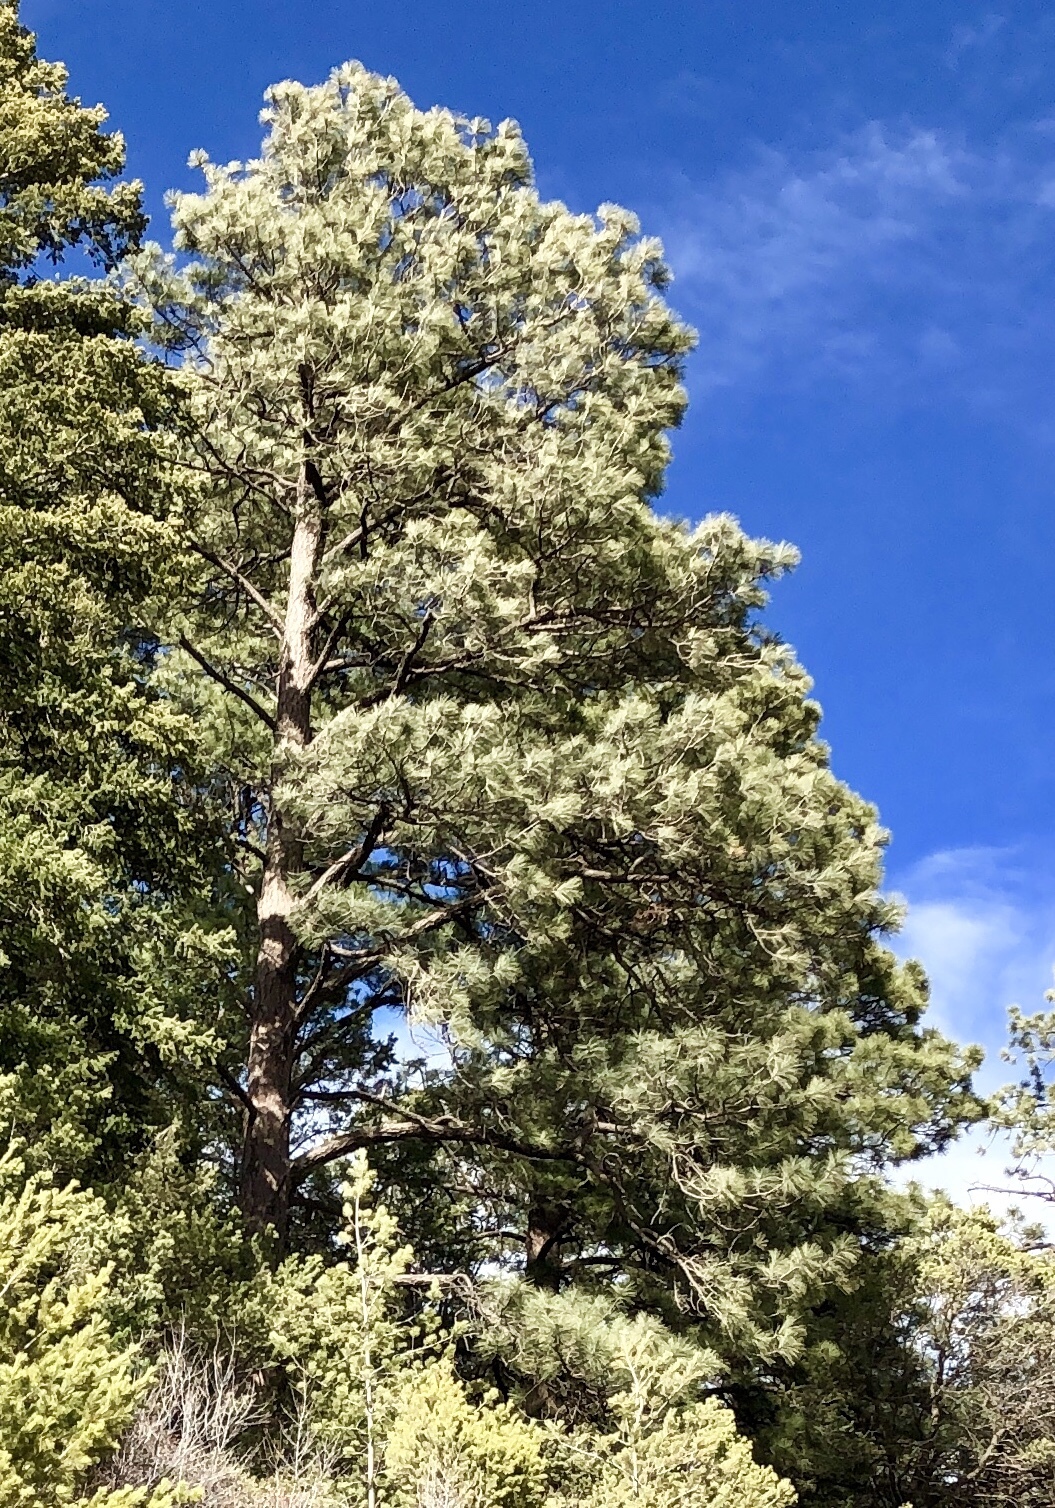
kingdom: Plantae
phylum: Tracheophyta
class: Pinopsida
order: Pinales
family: Pinaceae
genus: Pinus
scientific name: Pinus ponderosa
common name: Western yellow-pine
